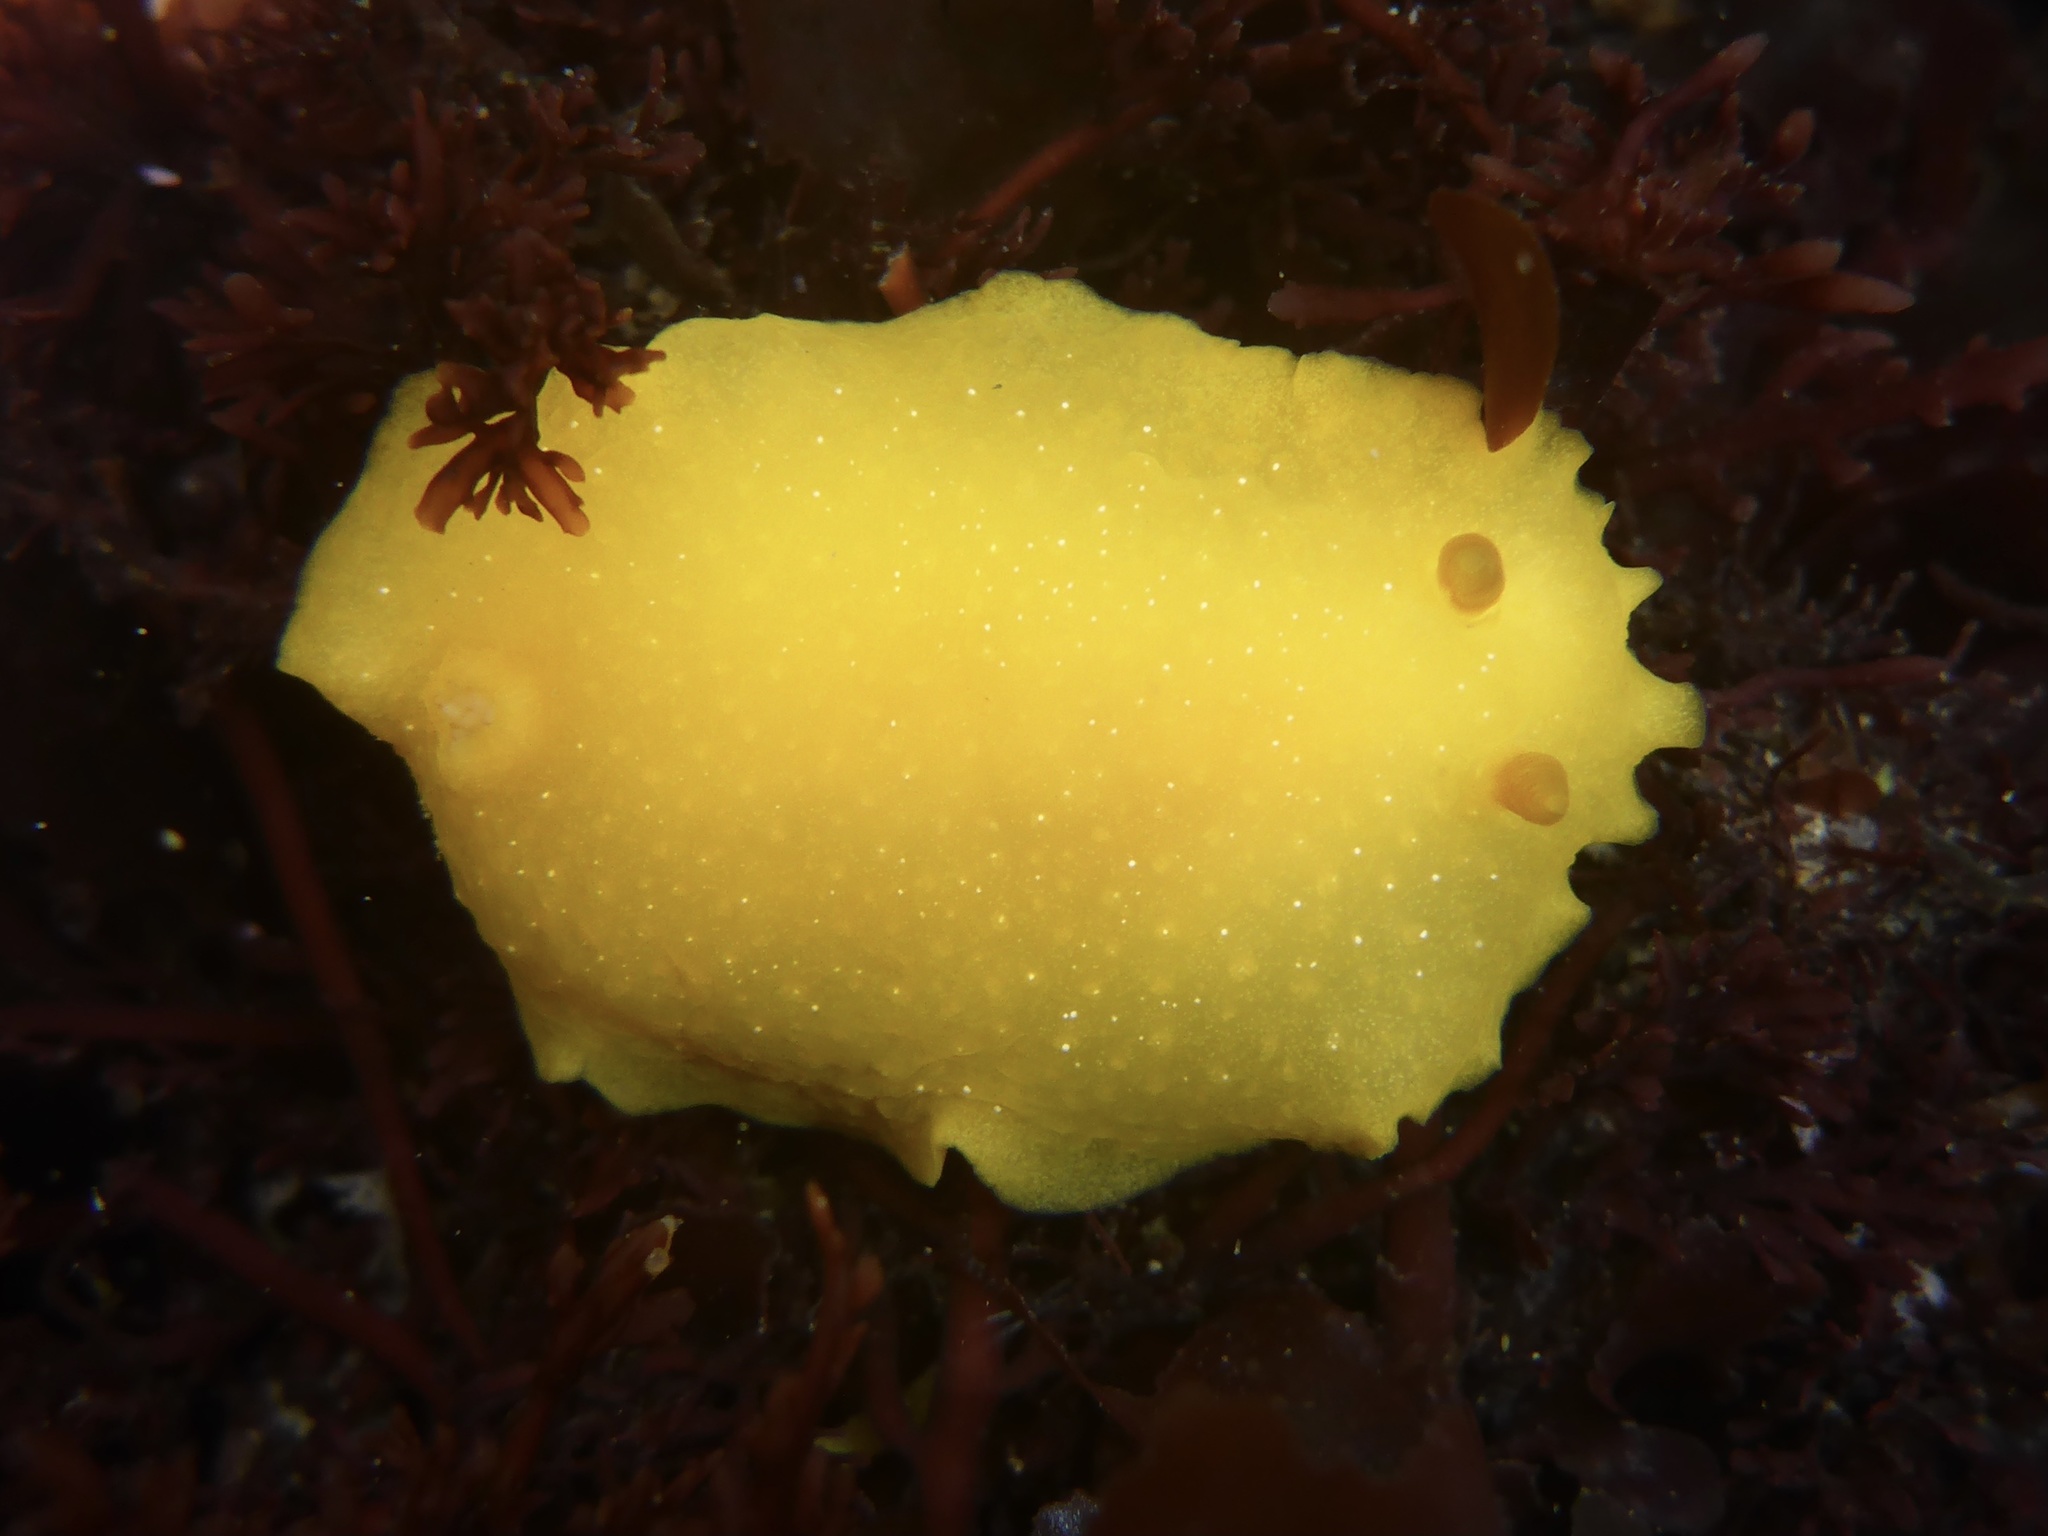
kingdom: Animalia
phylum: Mollusca
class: Gastropoda
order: Nudibranchia
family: Dendrodorididae
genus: Doriopsilla
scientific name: Doriopsilla fulva
